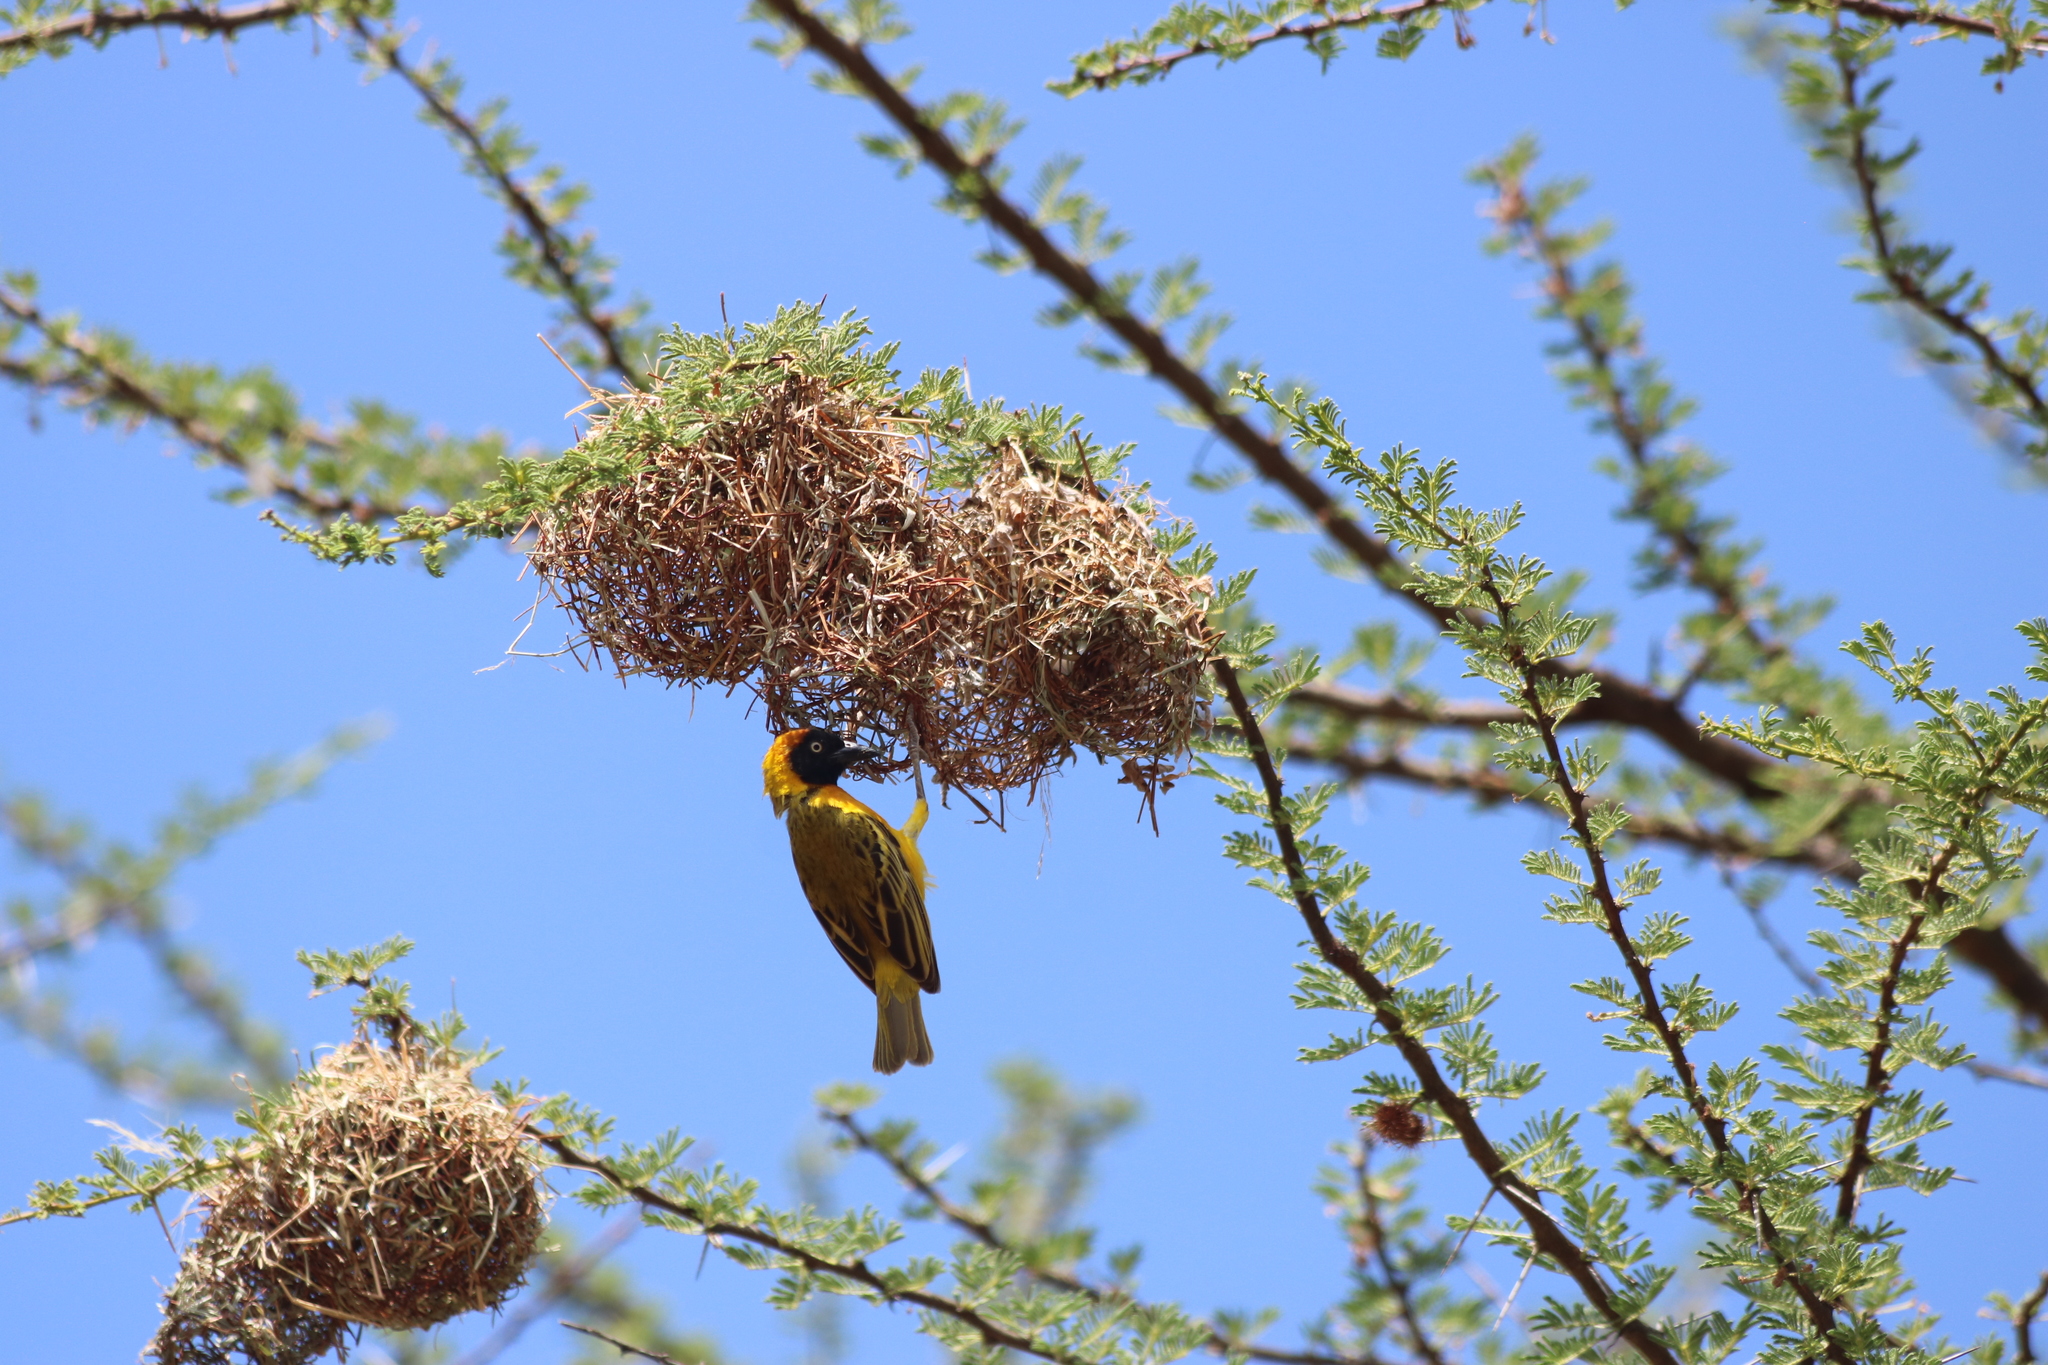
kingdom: Animalia
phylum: Chordata
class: Aves
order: Passeriformes
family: Ploceidae
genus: Ploceus
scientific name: Ploceus intermedius
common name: Lesser masked weaver
